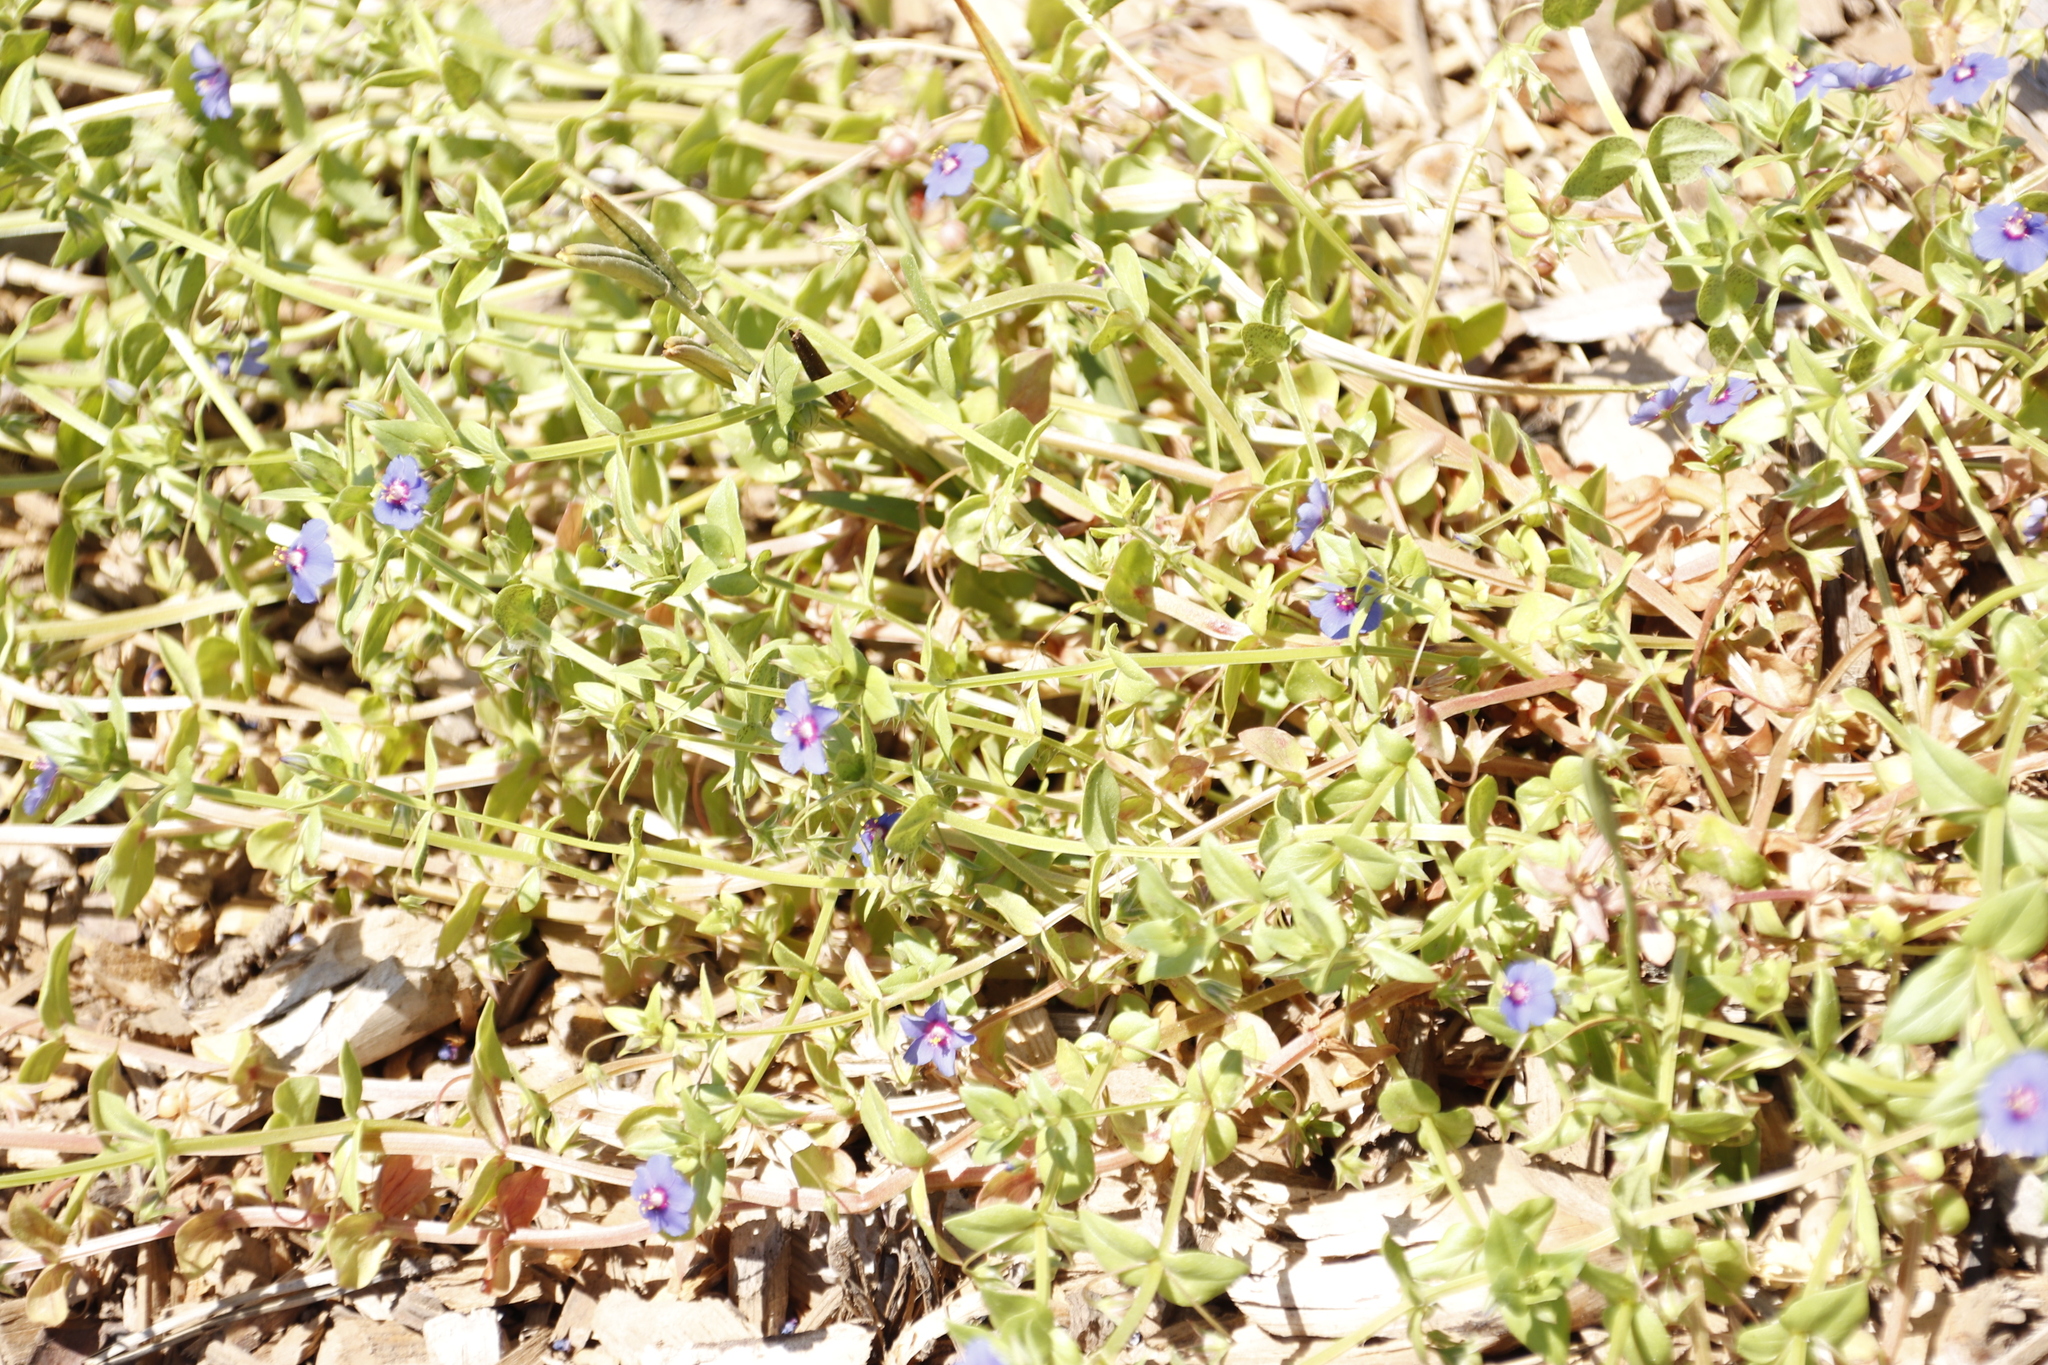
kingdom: Plantae
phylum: Tracheophyta
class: Magnoliopsida
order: Ericales
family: Primulaceae
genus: Lysimachia
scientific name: Lysimachia loeflingii
